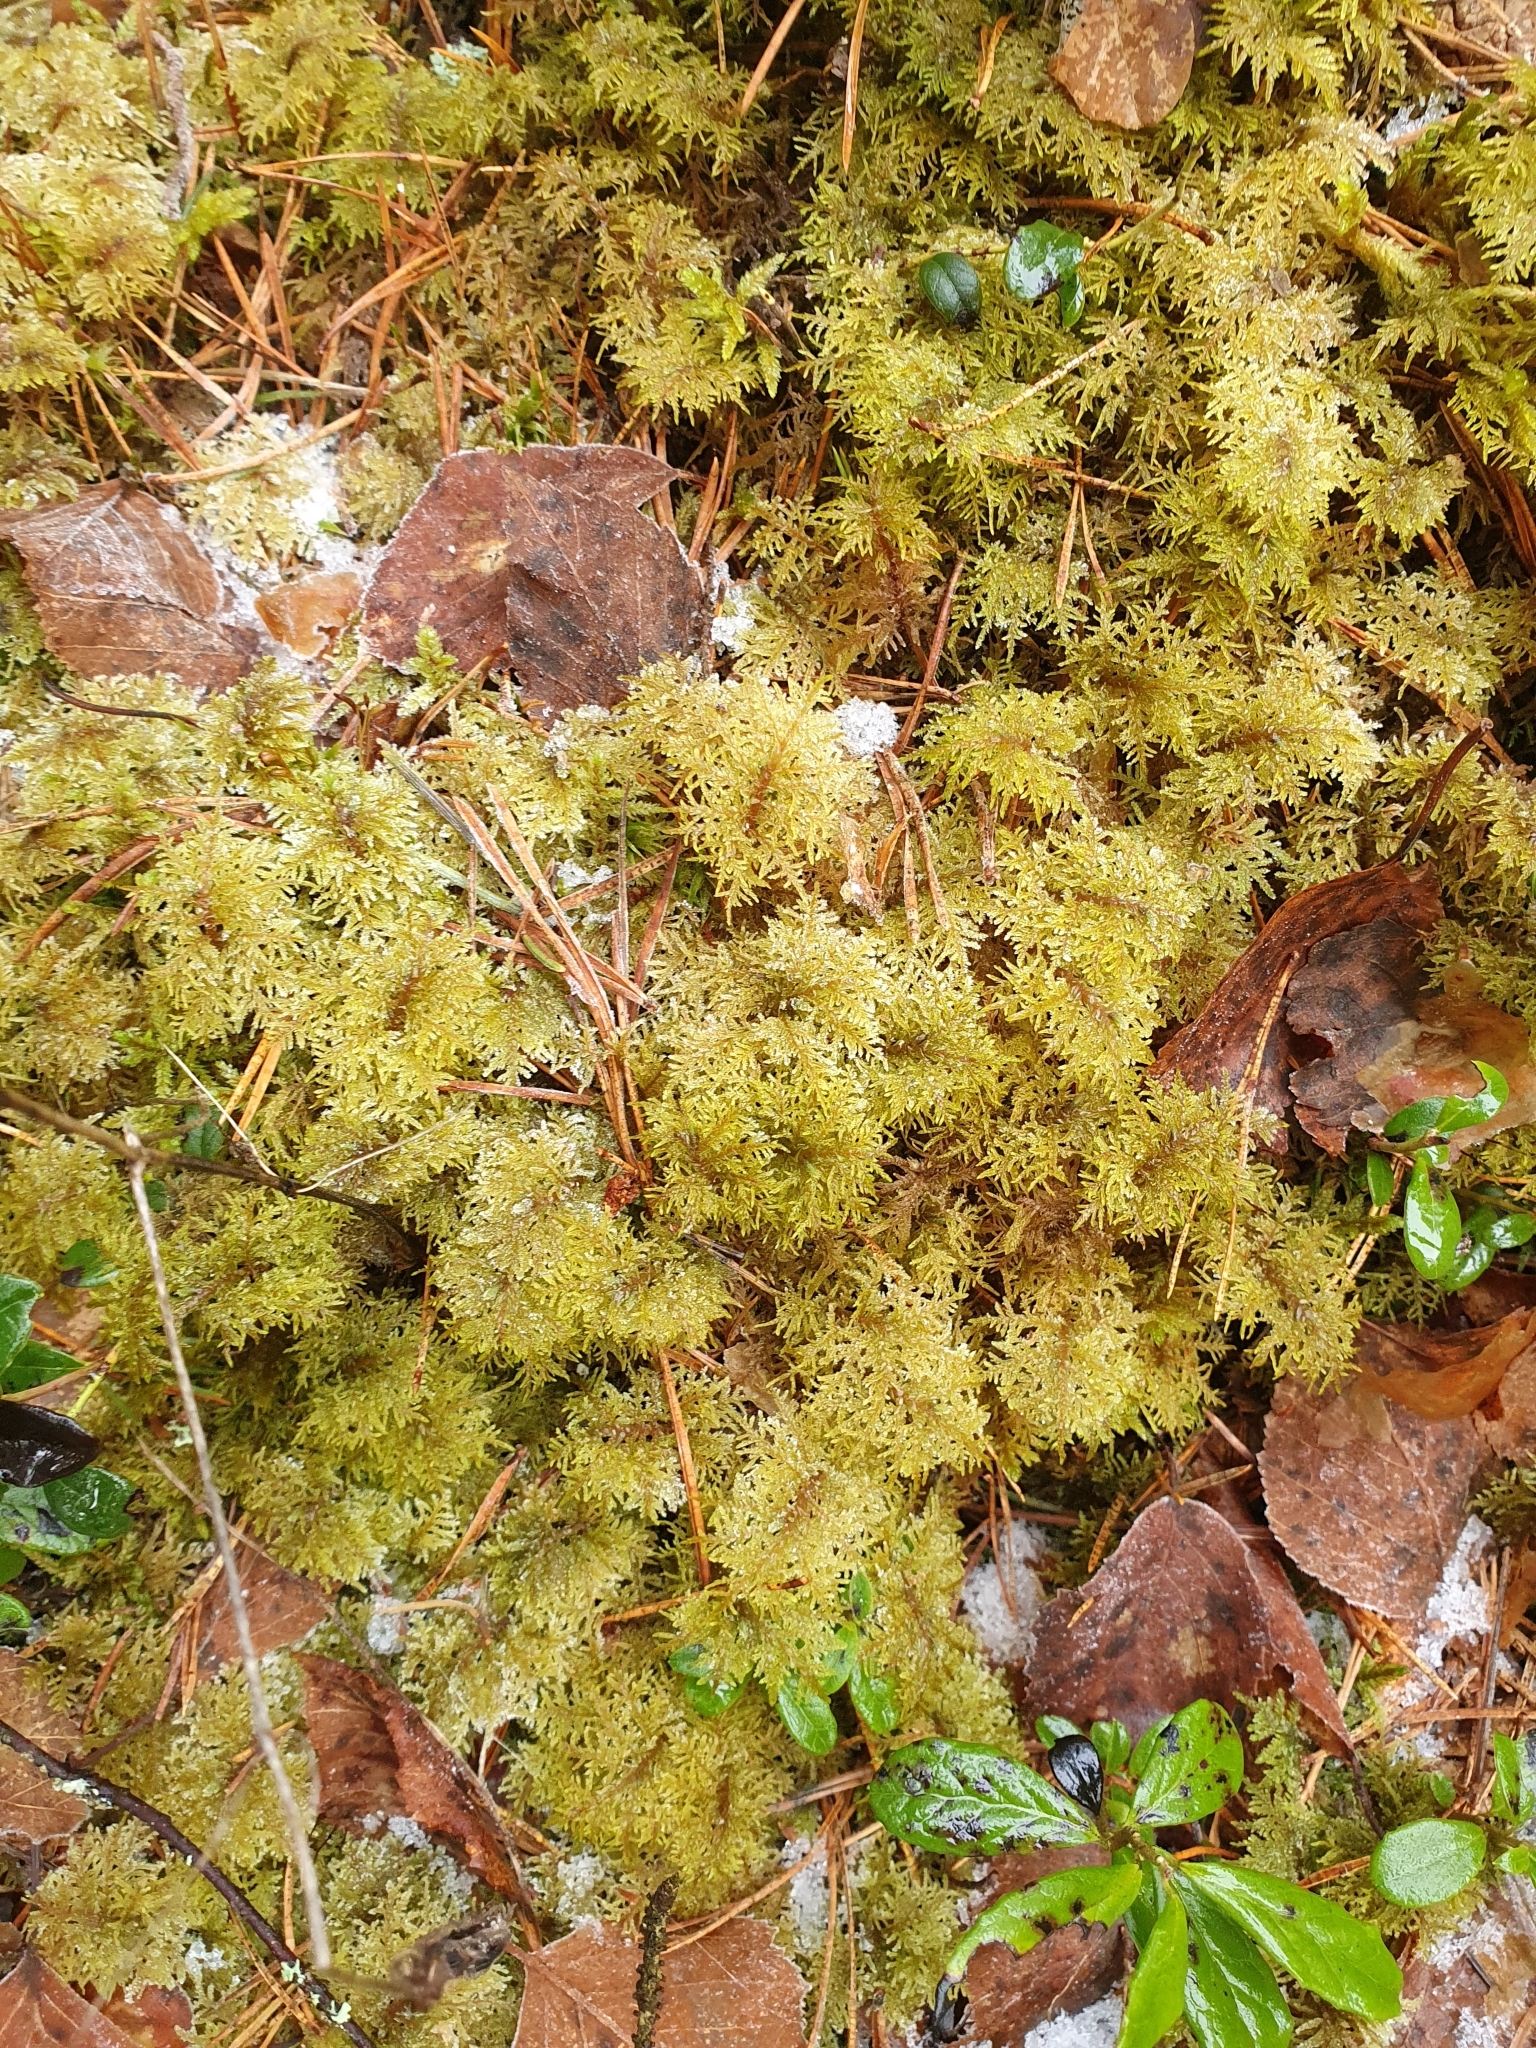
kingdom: Plantae
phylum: Bryophyta
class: Bryopsida
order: Hypnales
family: Hylocomiaceae
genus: Hylocomium
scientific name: Hylocomium splendens
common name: Stairstep moss
